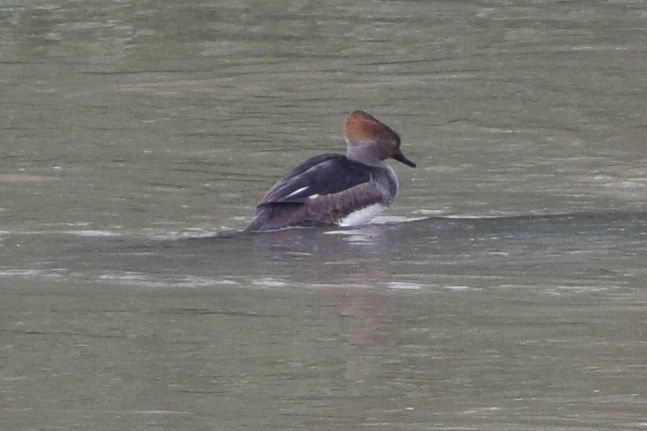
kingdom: Animalia
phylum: Chordata
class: Aves
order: Anseriformes
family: Anatidae
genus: Lophodytes
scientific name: Lophodytes cucullatus
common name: Hooded merganser
